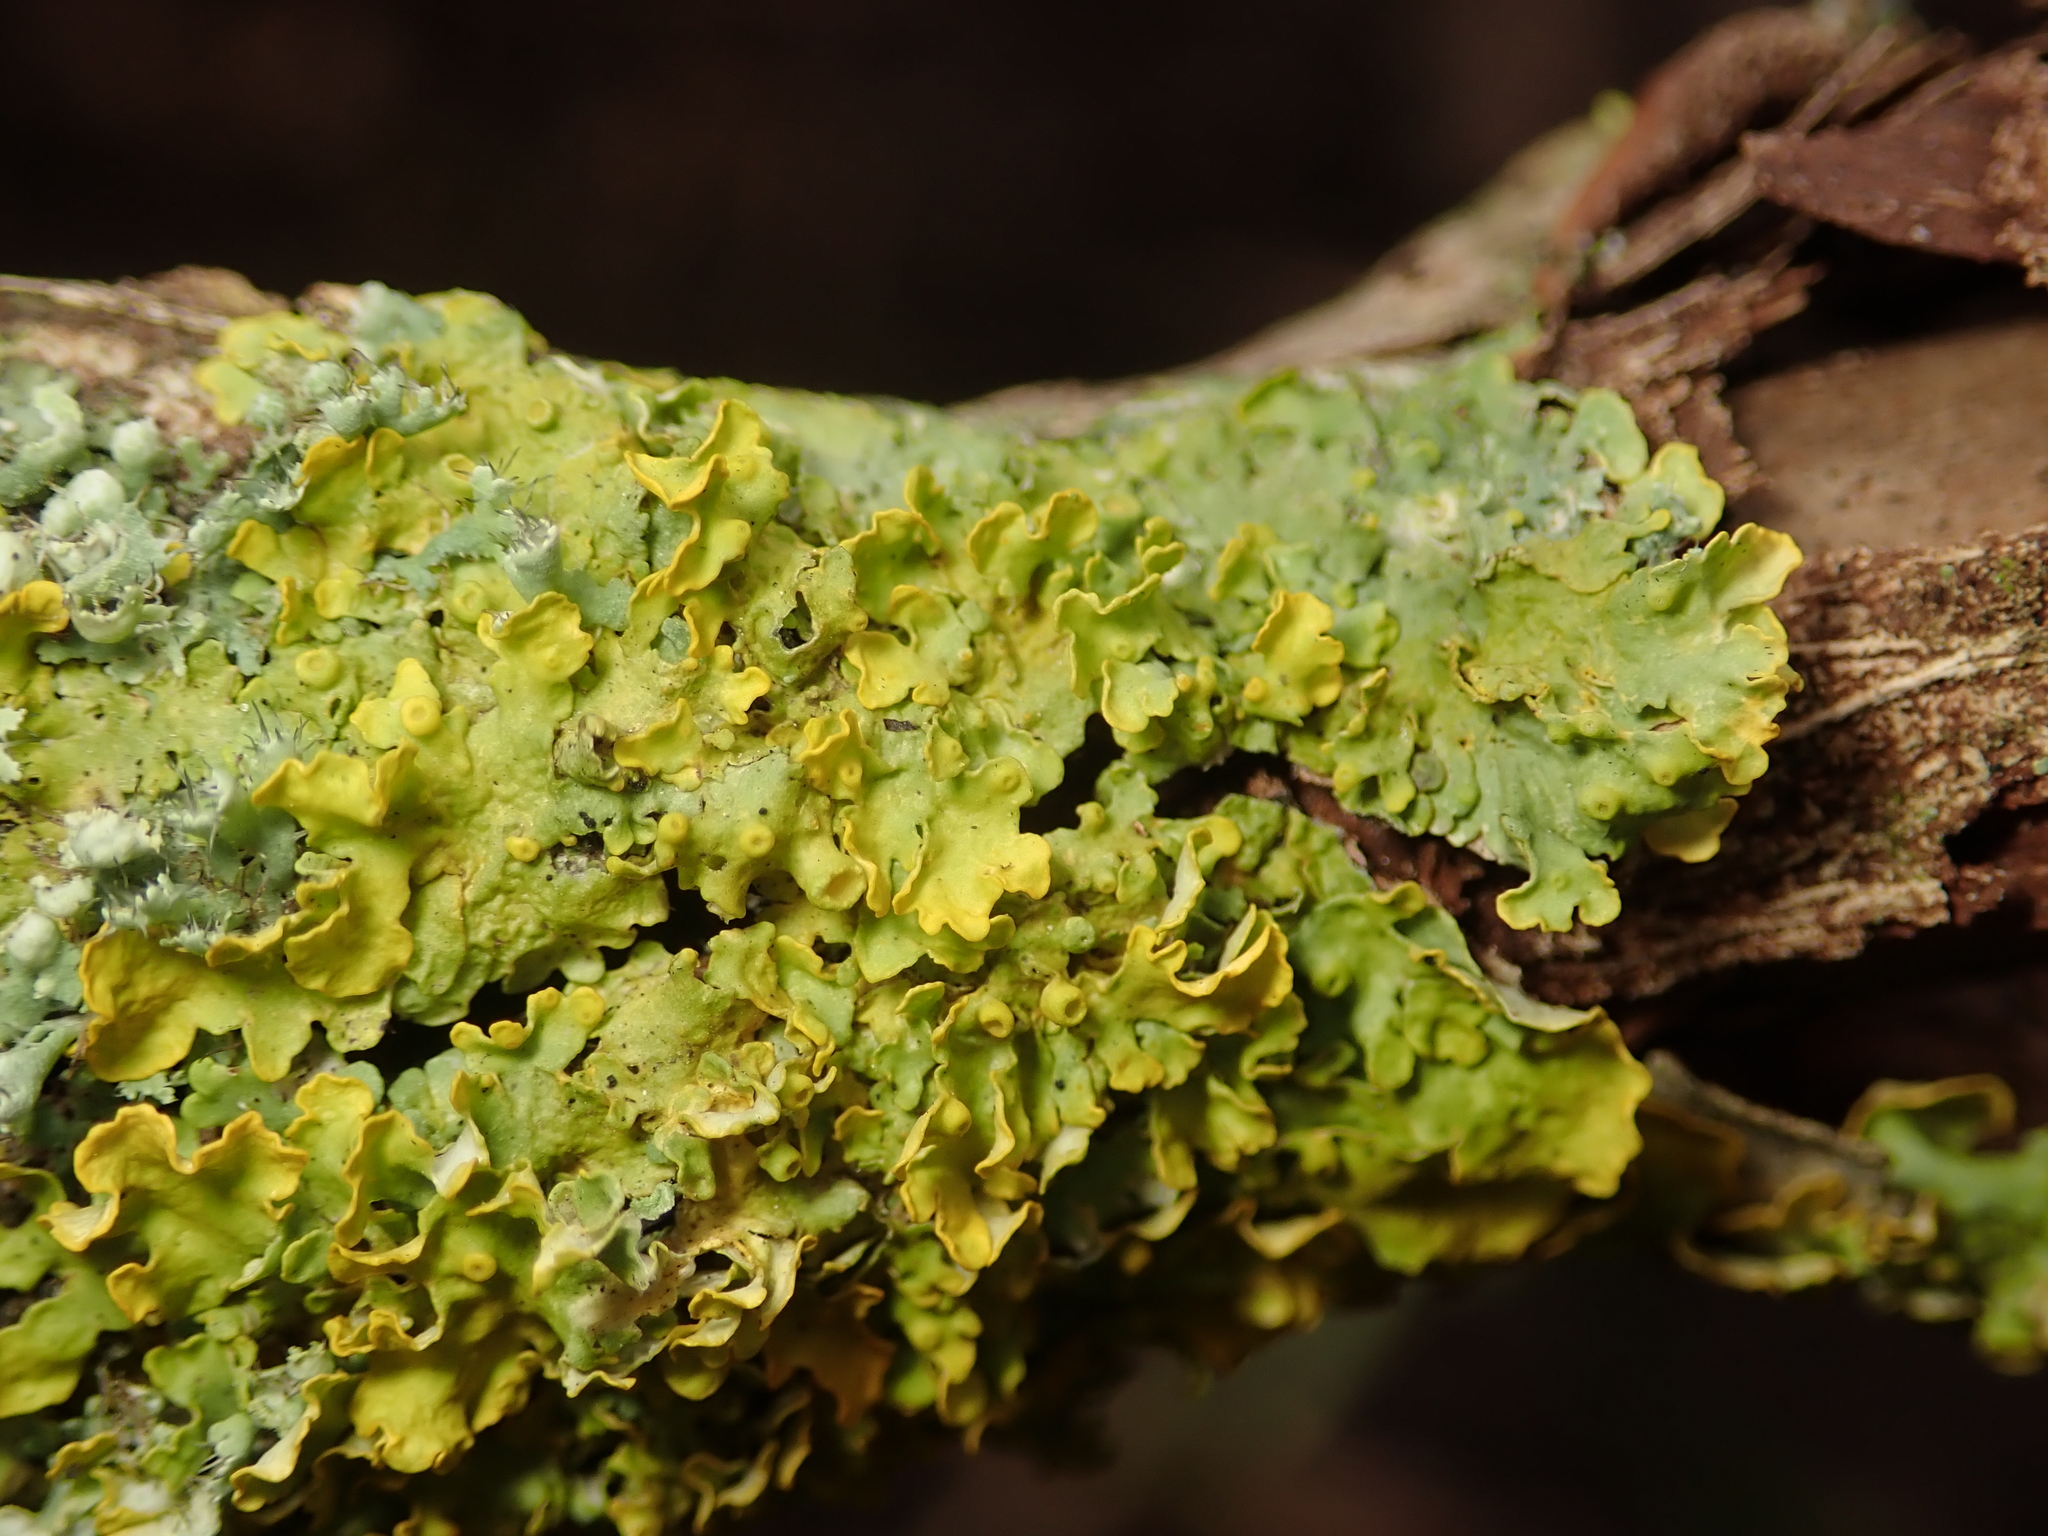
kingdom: Fungi
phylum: Ascomycota
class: Lecanoromycetes
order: Teloschistales
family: Teloschistaceae
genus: Xanthoria
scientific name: Xanthoria parietina
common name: Common orange lichen
